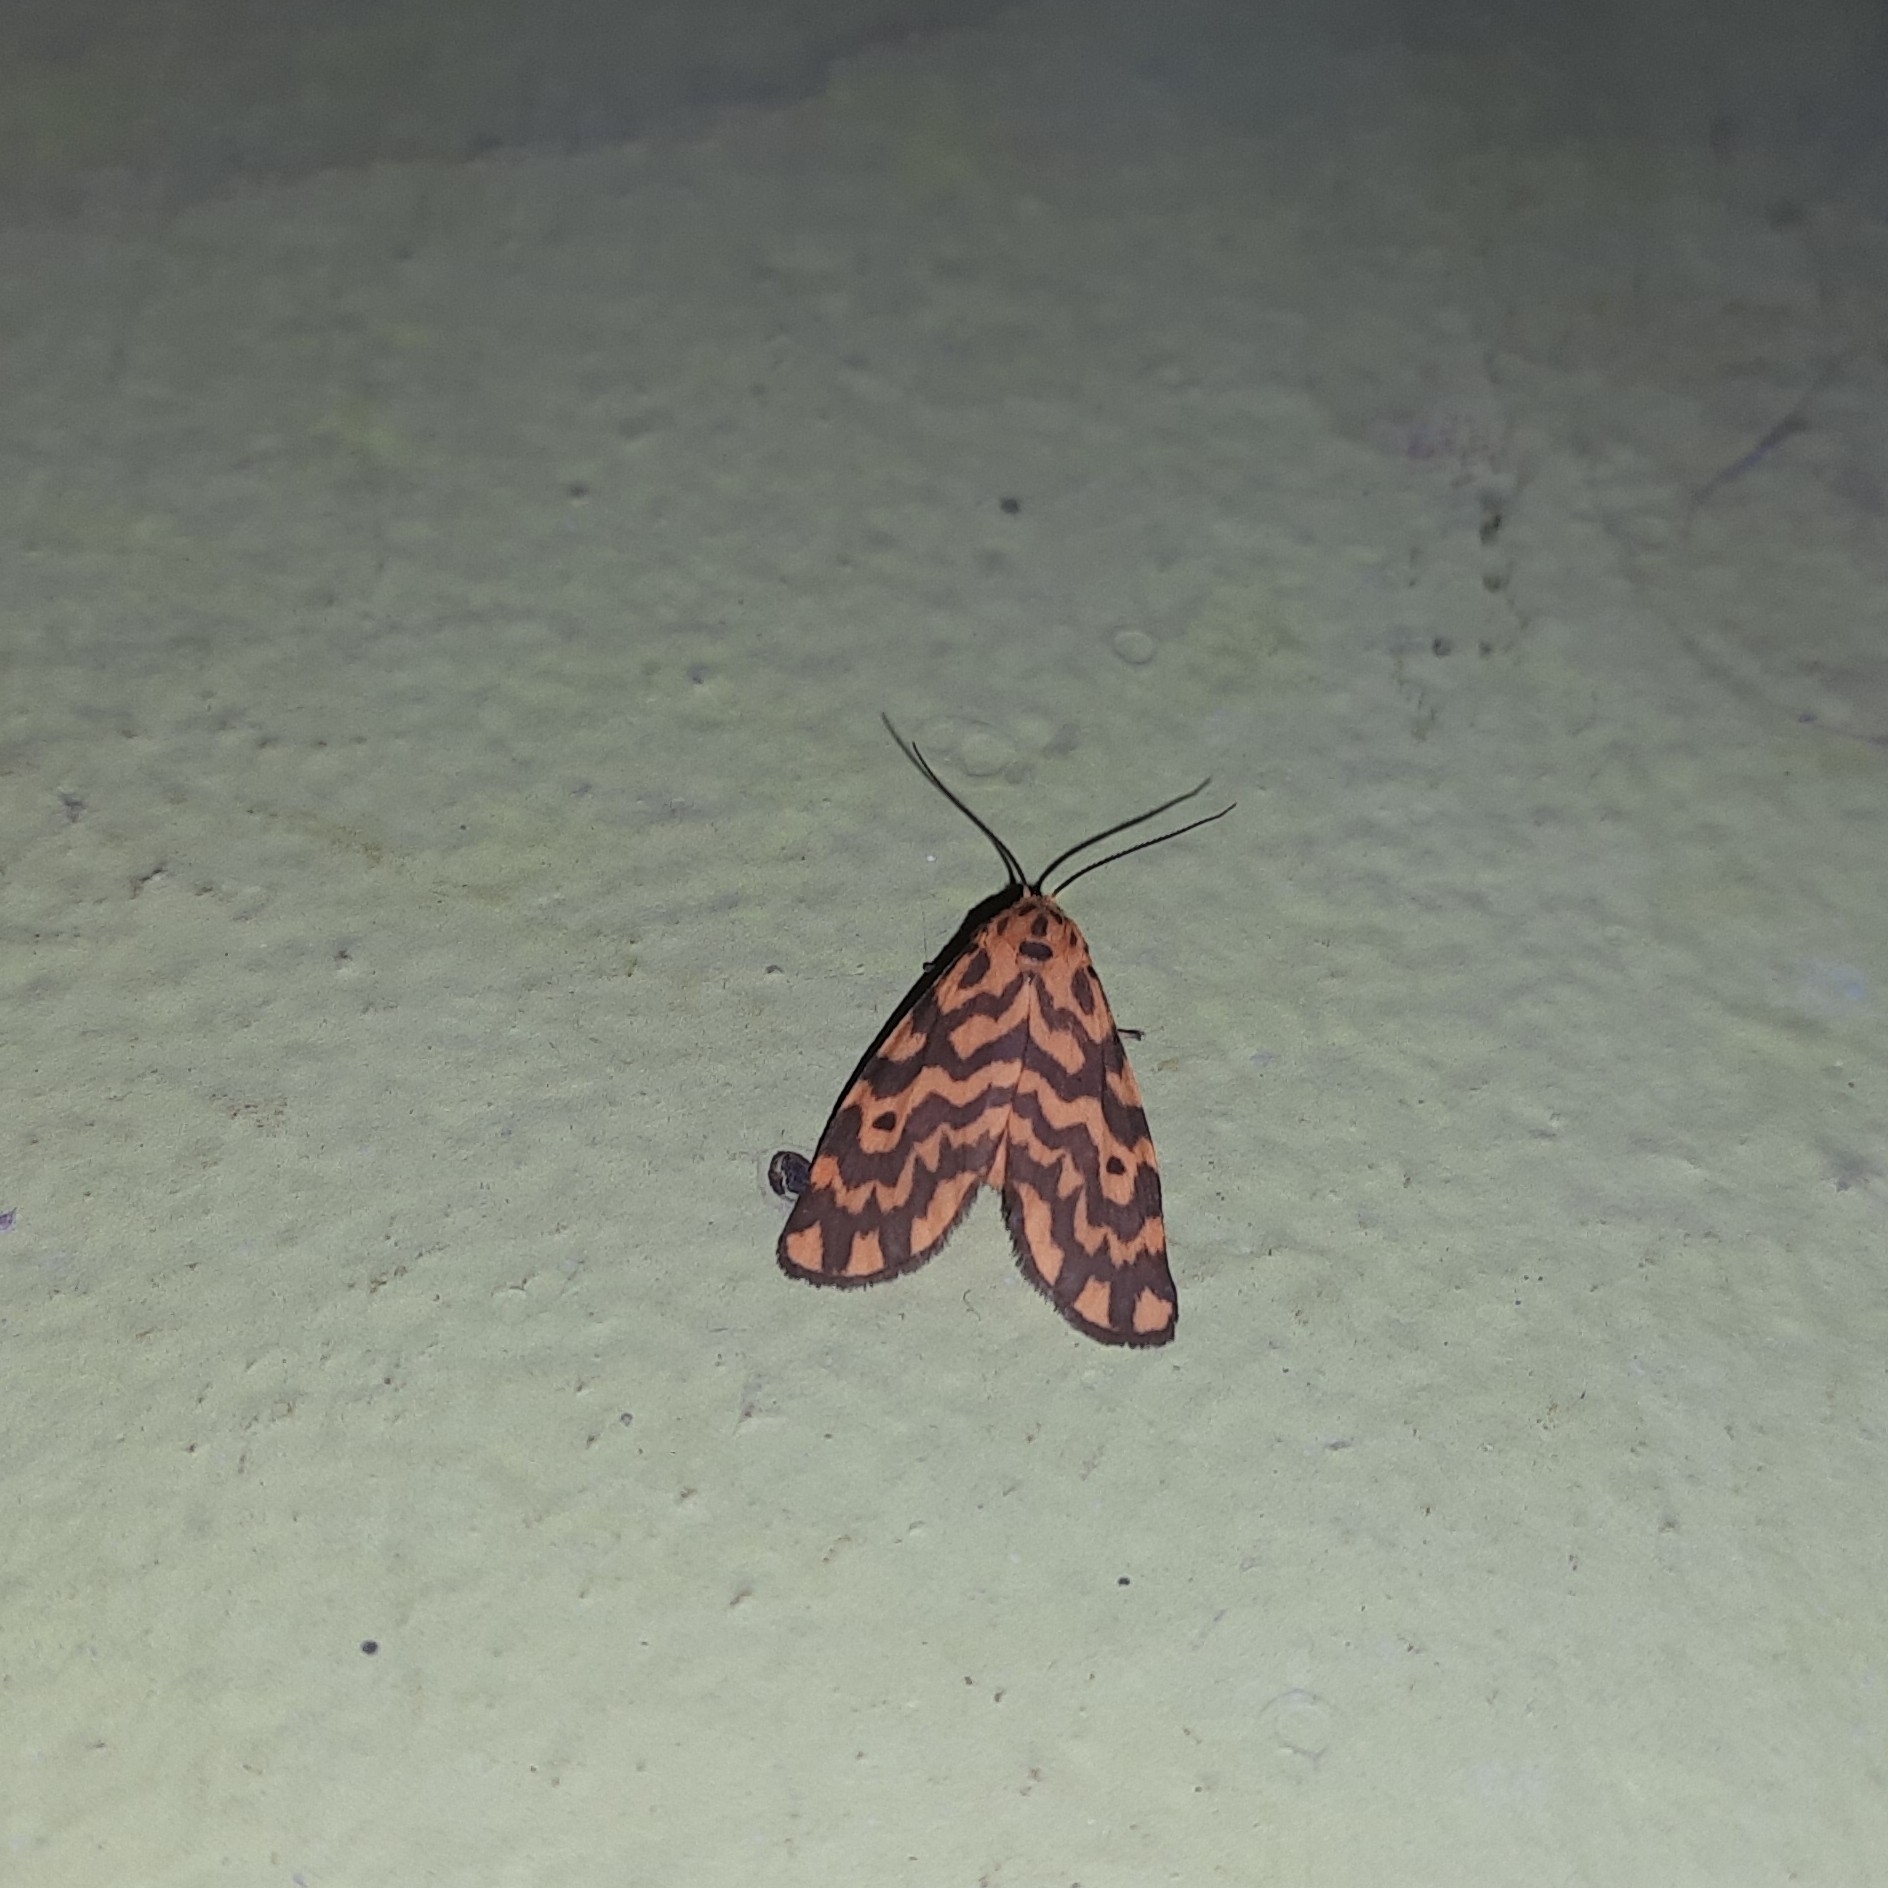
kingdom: Animalia
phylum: Arthropoda
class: Insecta
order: Lepidoptera
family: Erebidae
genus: Nepita
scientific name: Nepita conferta
